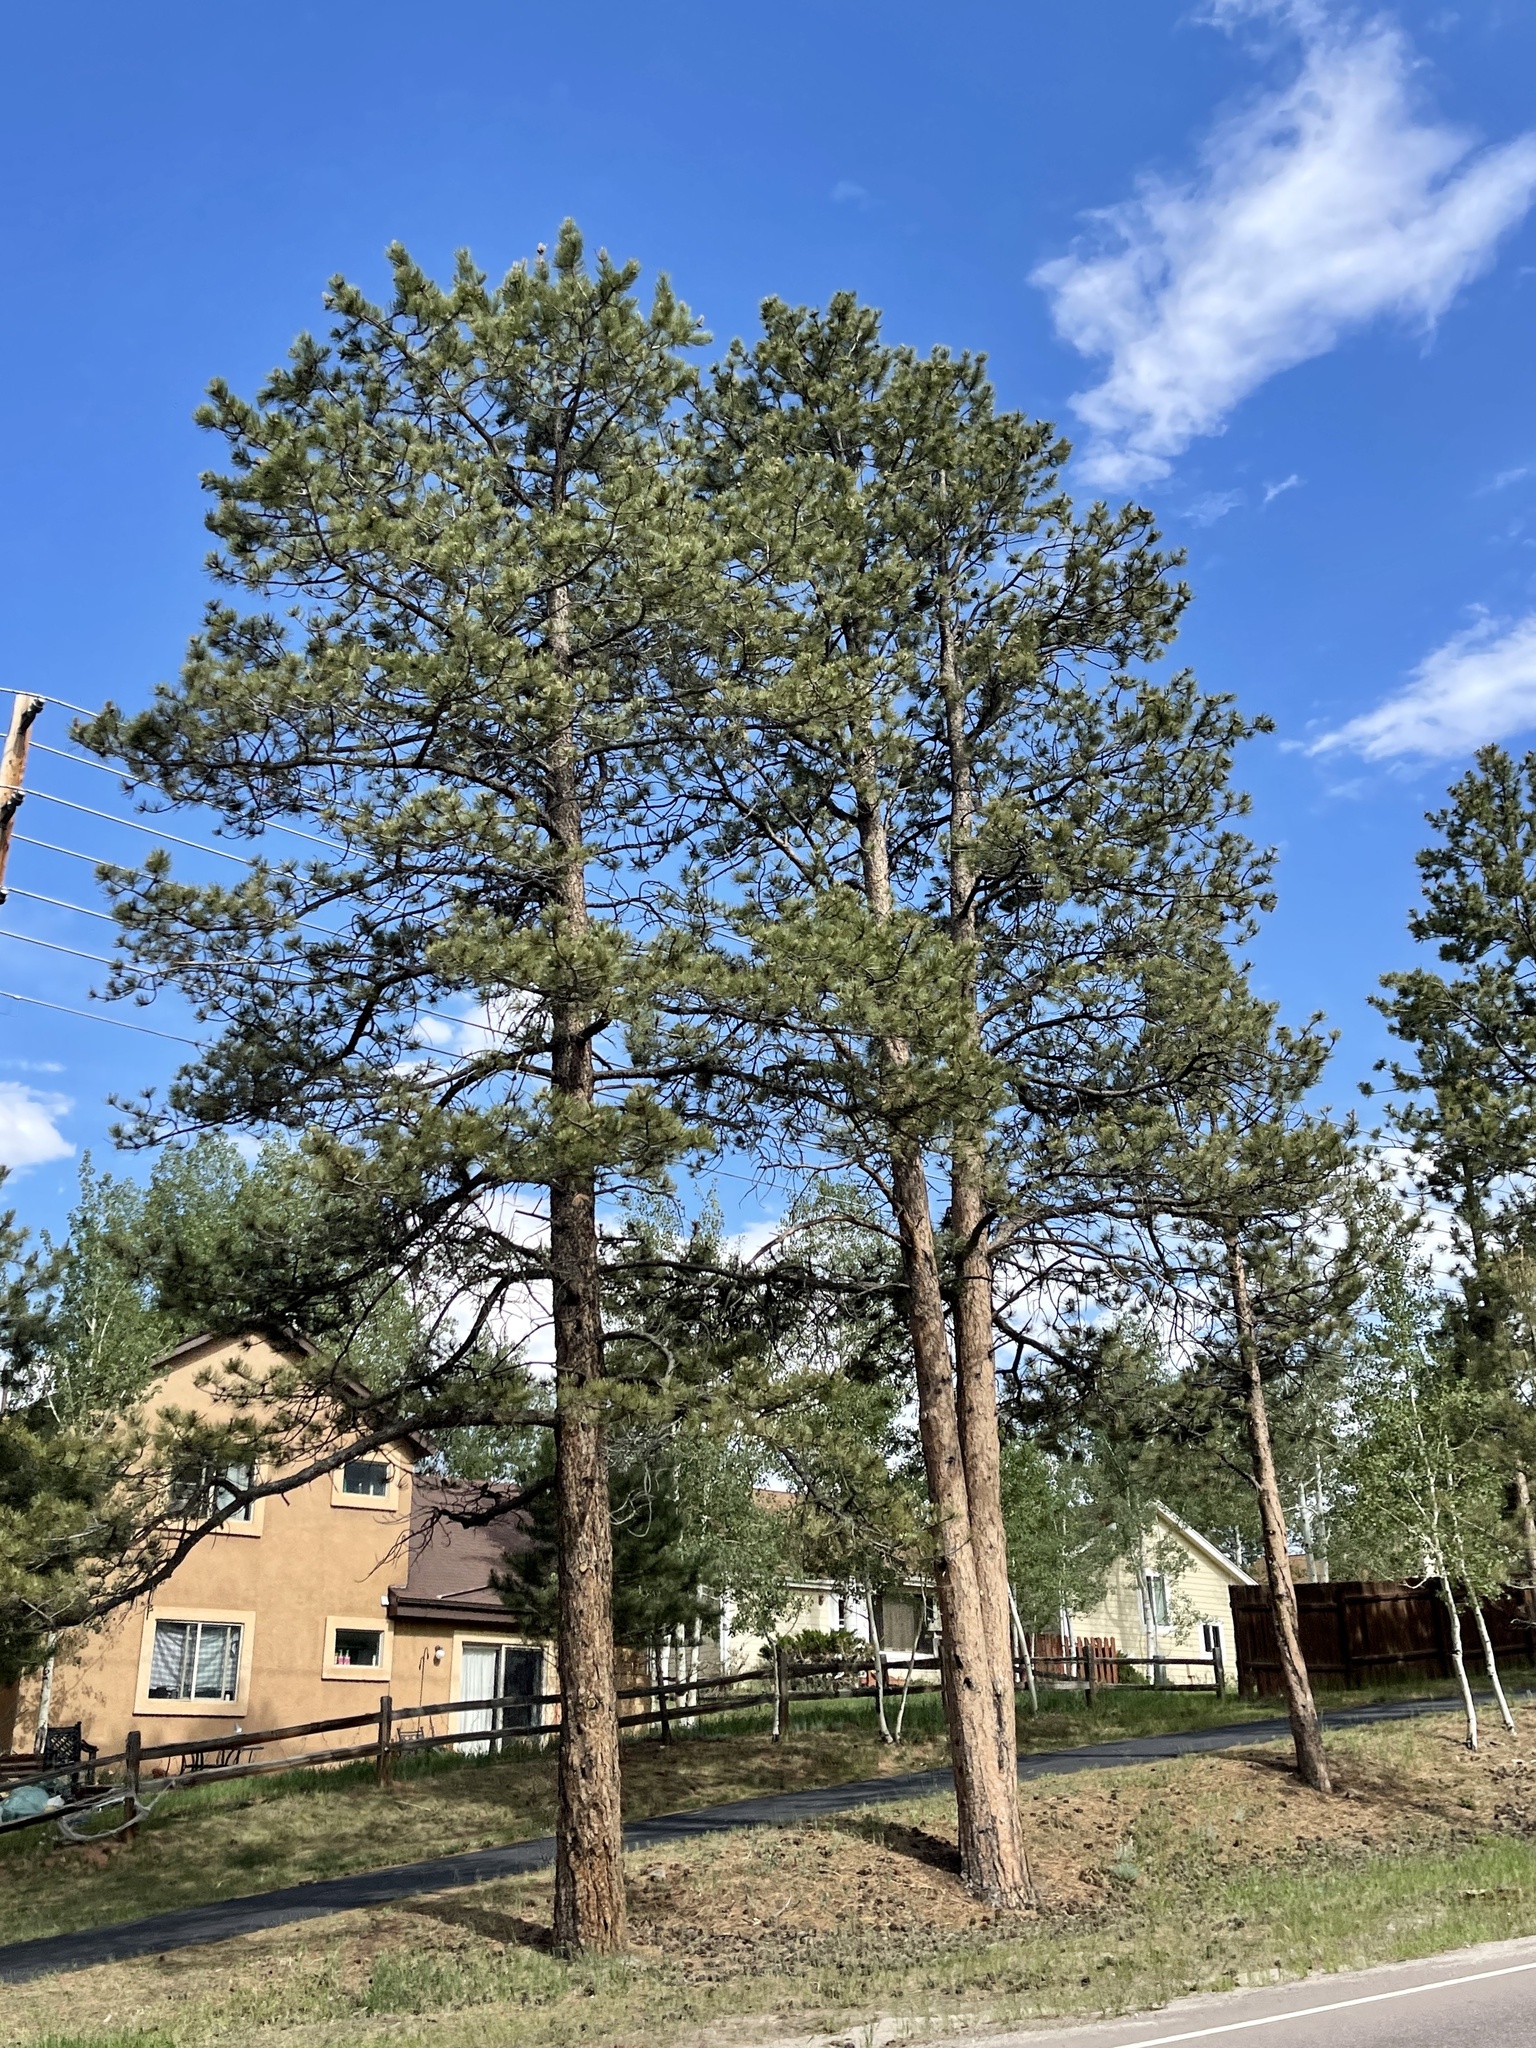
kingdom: Plantae
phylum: Tracheophyta
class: Pinopsida
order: Pinales
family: Pinaceae
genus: Pinus
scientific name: Pinus ponderosa
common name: Western yellow-pine
